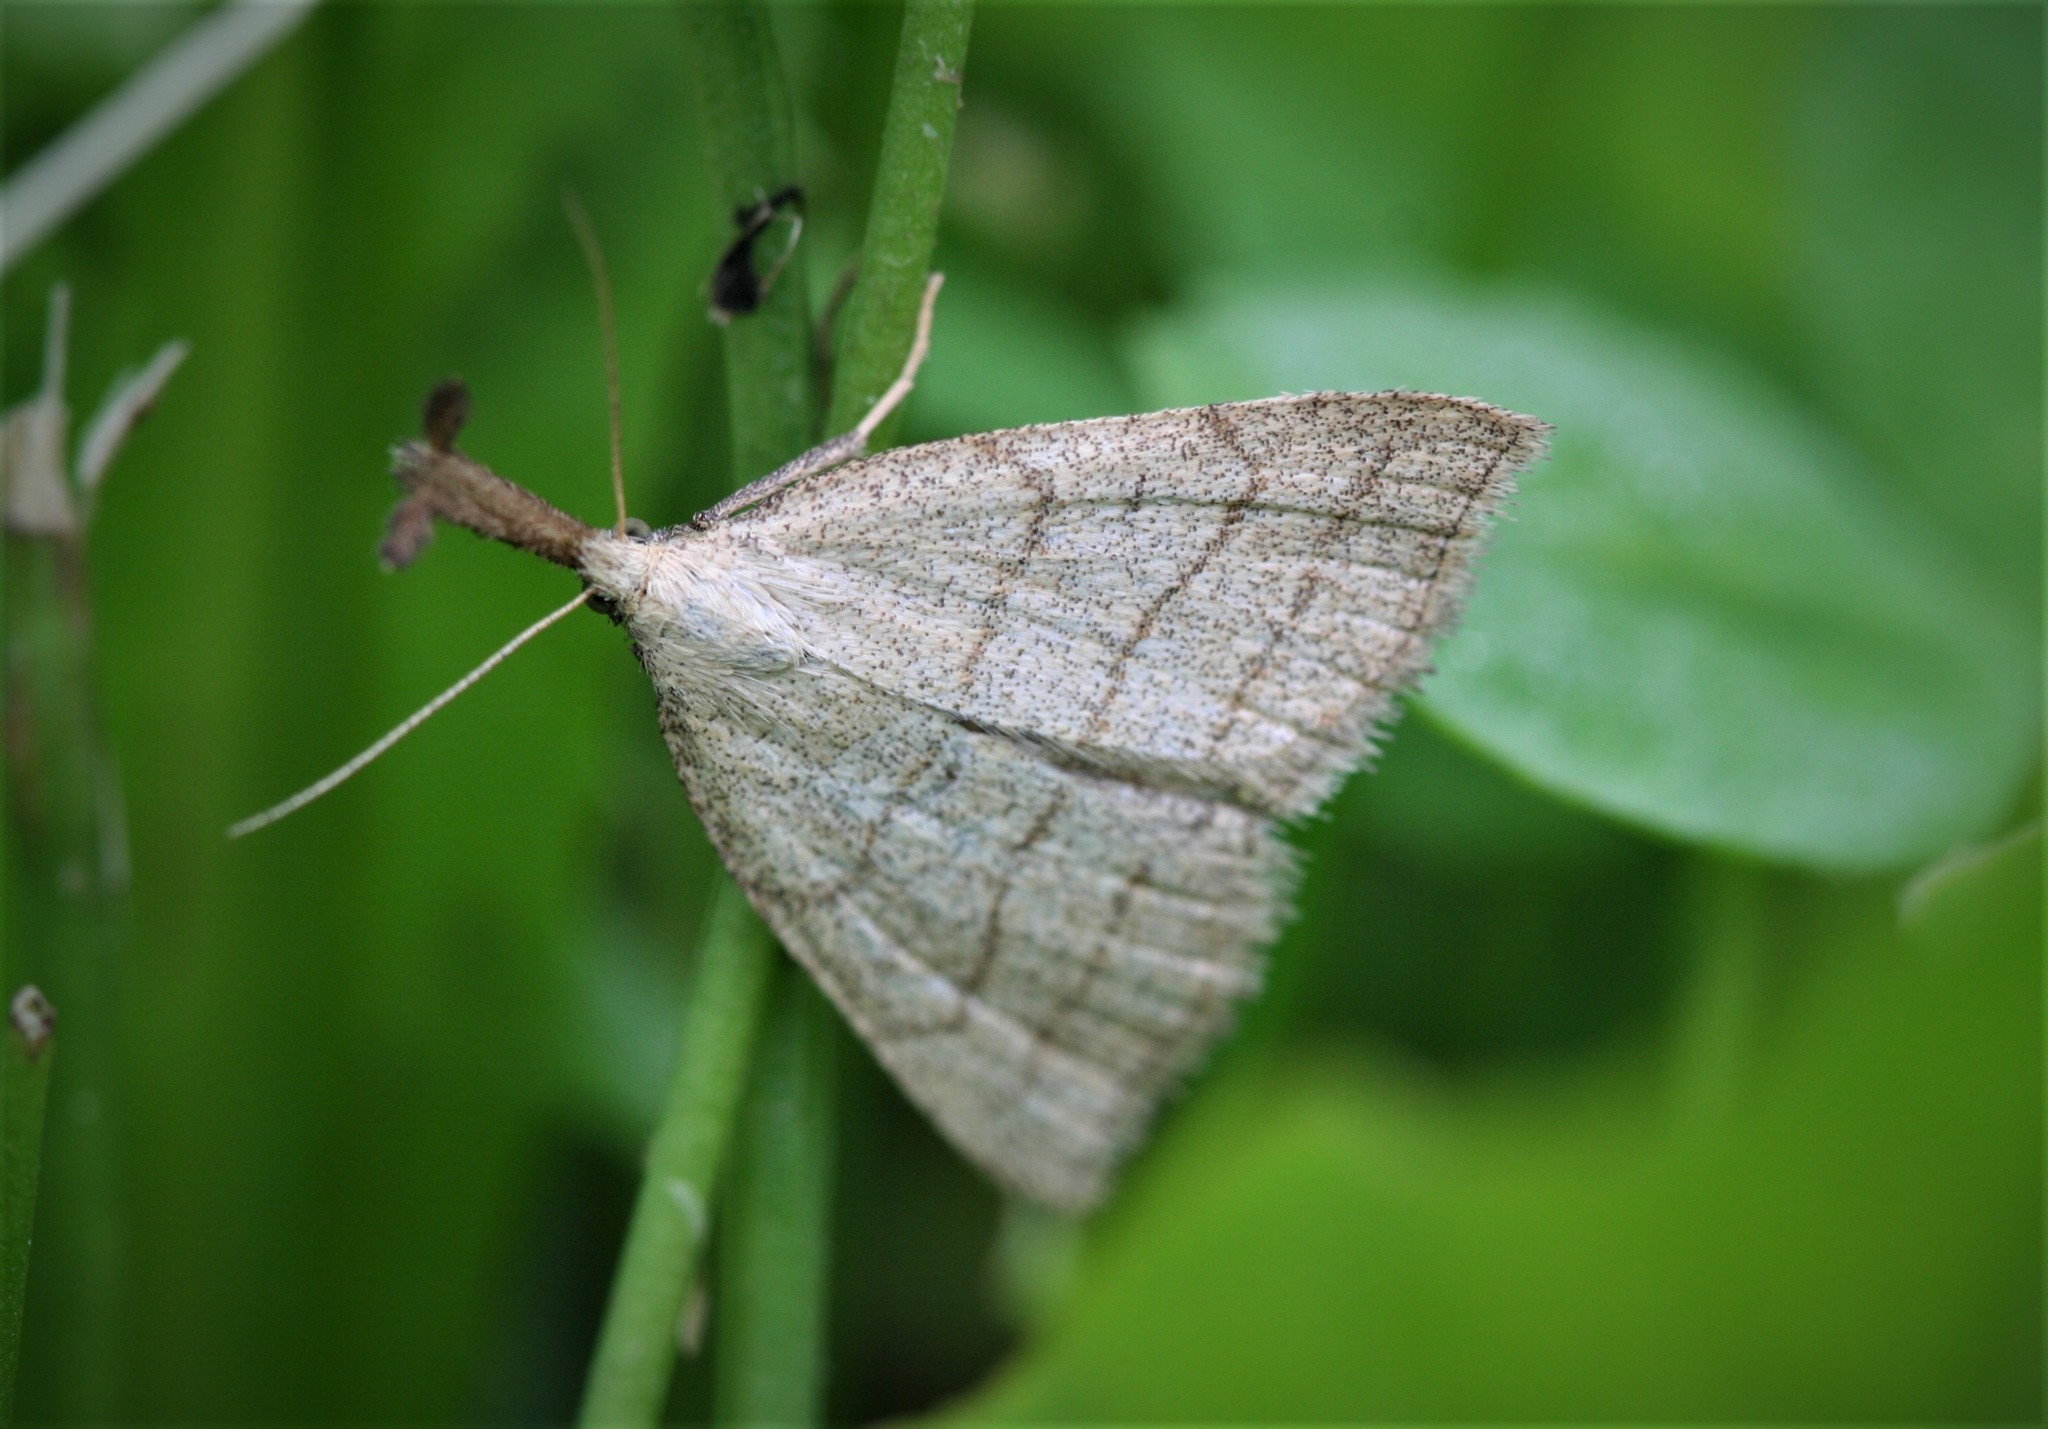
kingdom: Animalia
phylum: Arthropoda
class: Insecta
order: Lepidoptera
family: Erebidae
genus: Polypogon
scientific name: Polypogon tentacularia
